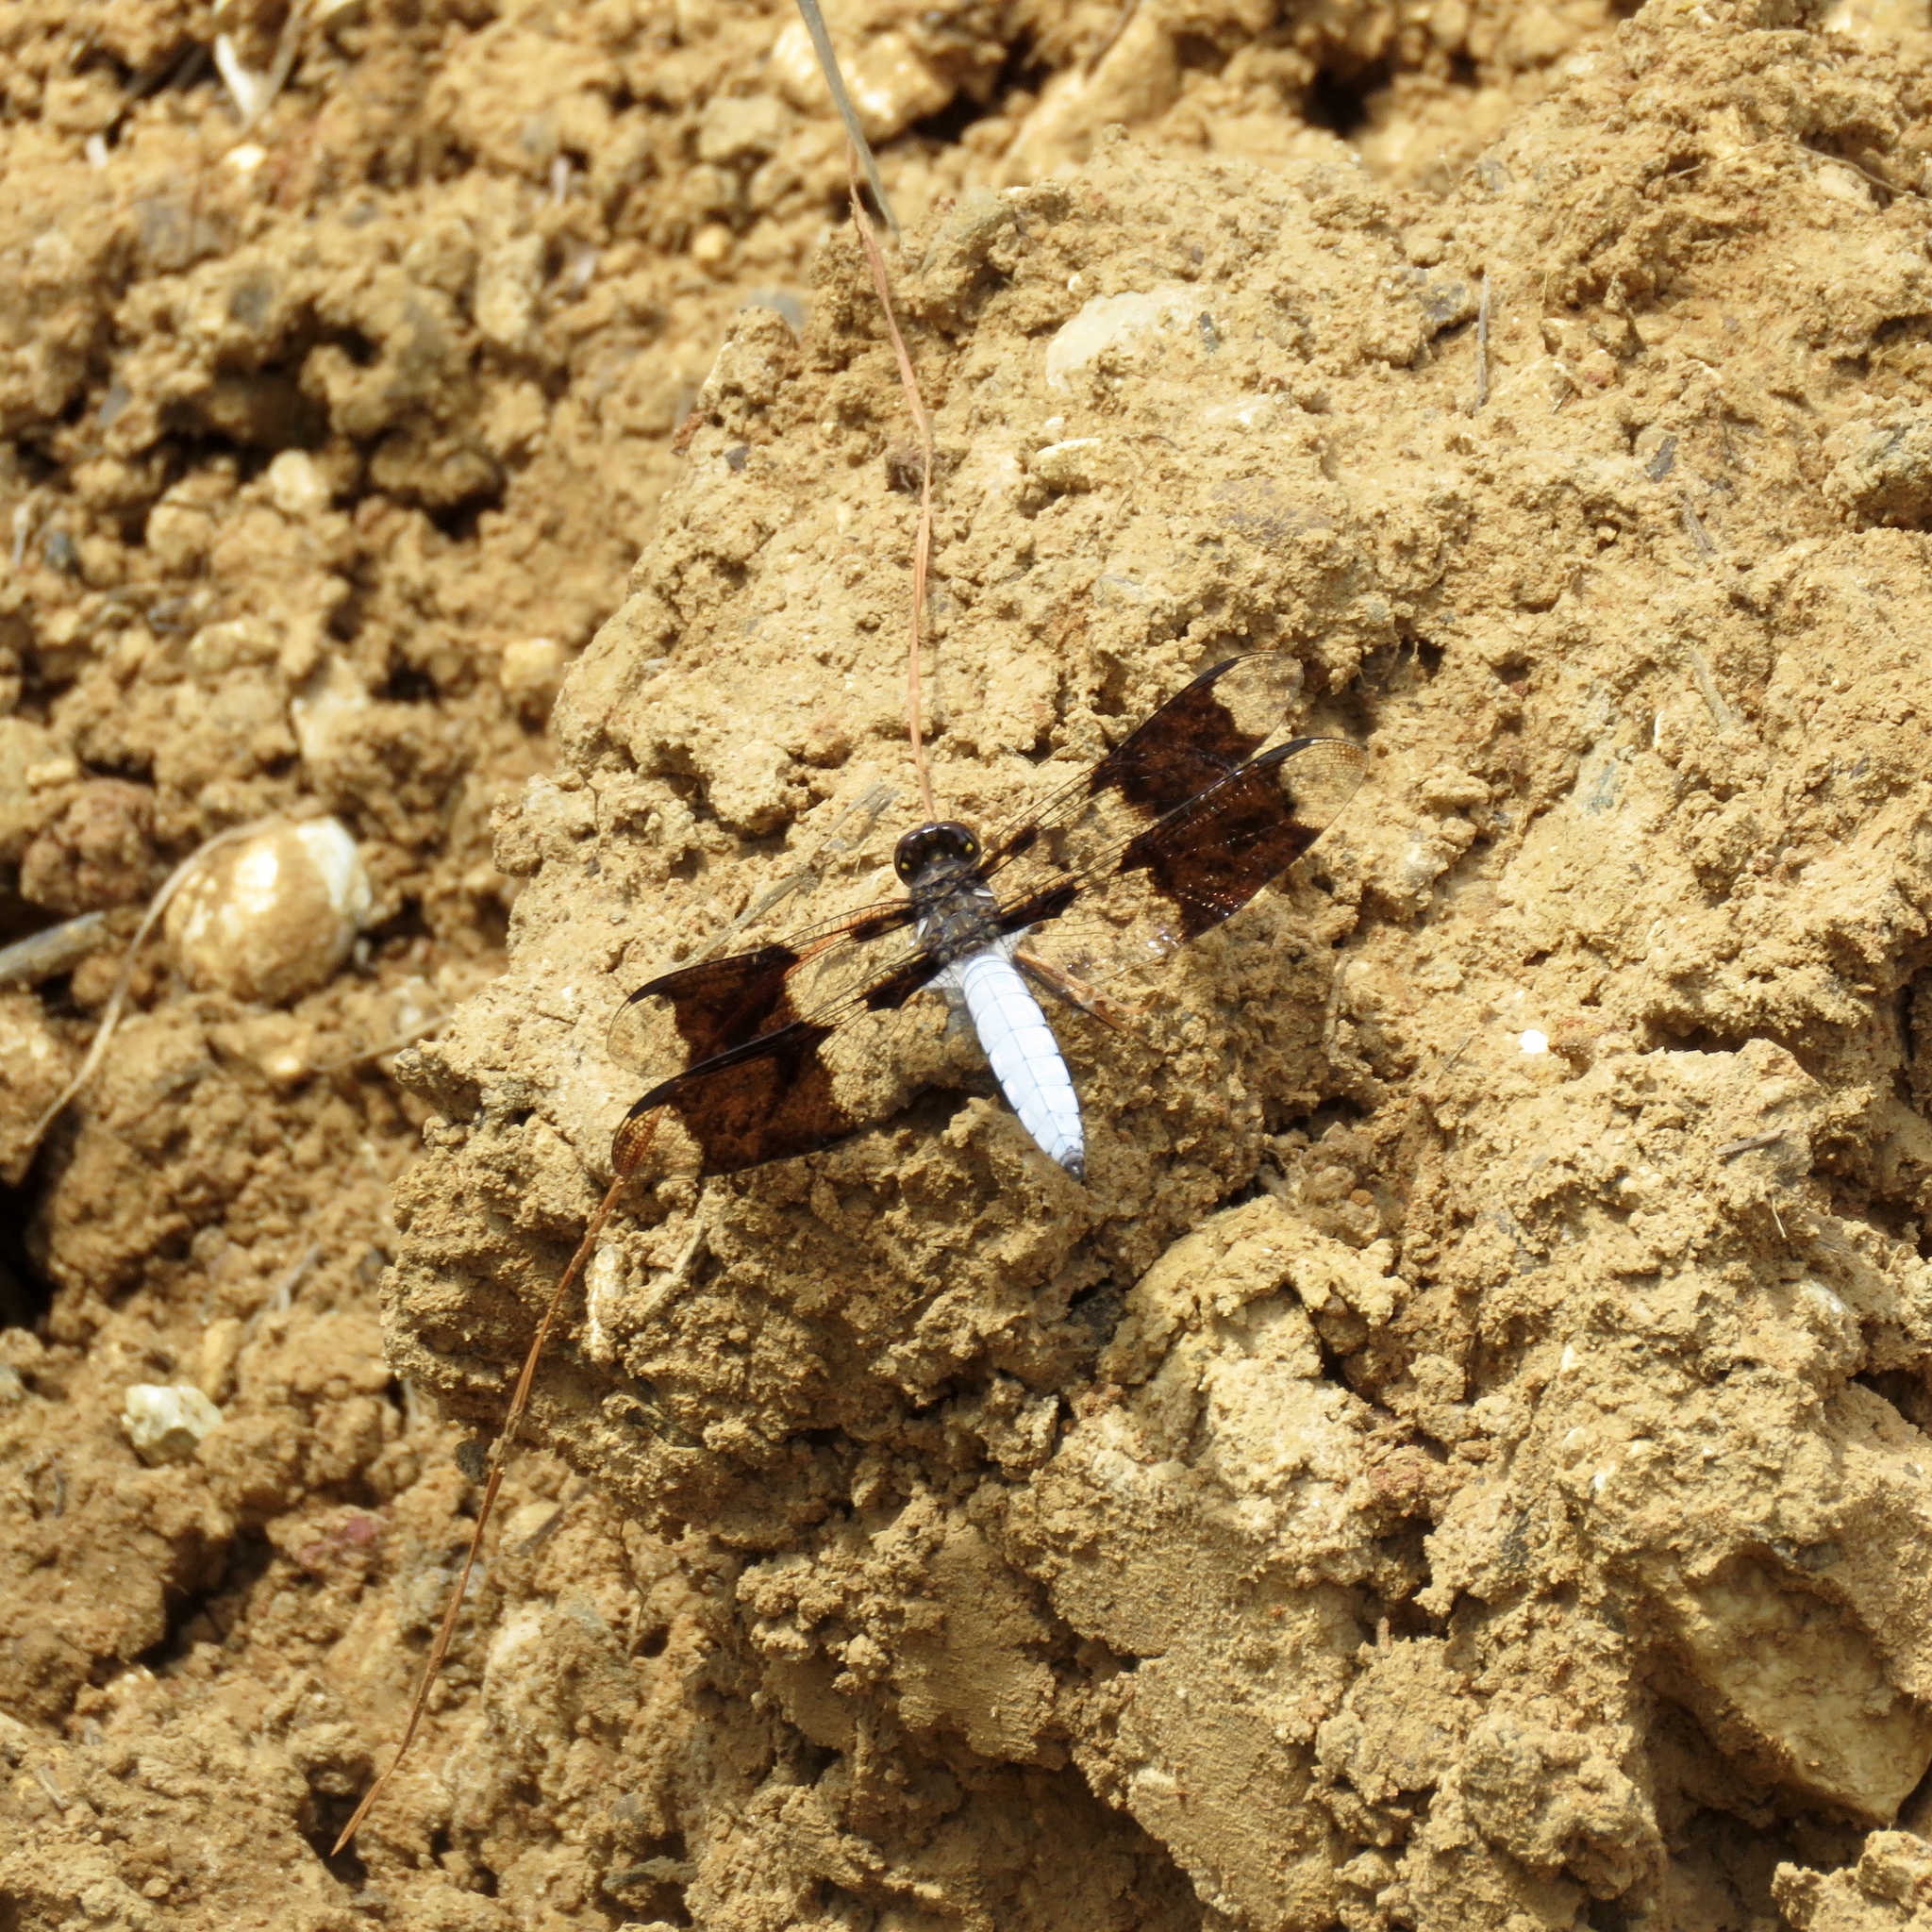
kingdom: Animalia
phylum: Arthropoda
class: Insecta
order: Odonata
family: Libellulidae
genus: Plathemis
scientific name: Plathemis lydia
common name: Common whitetail
